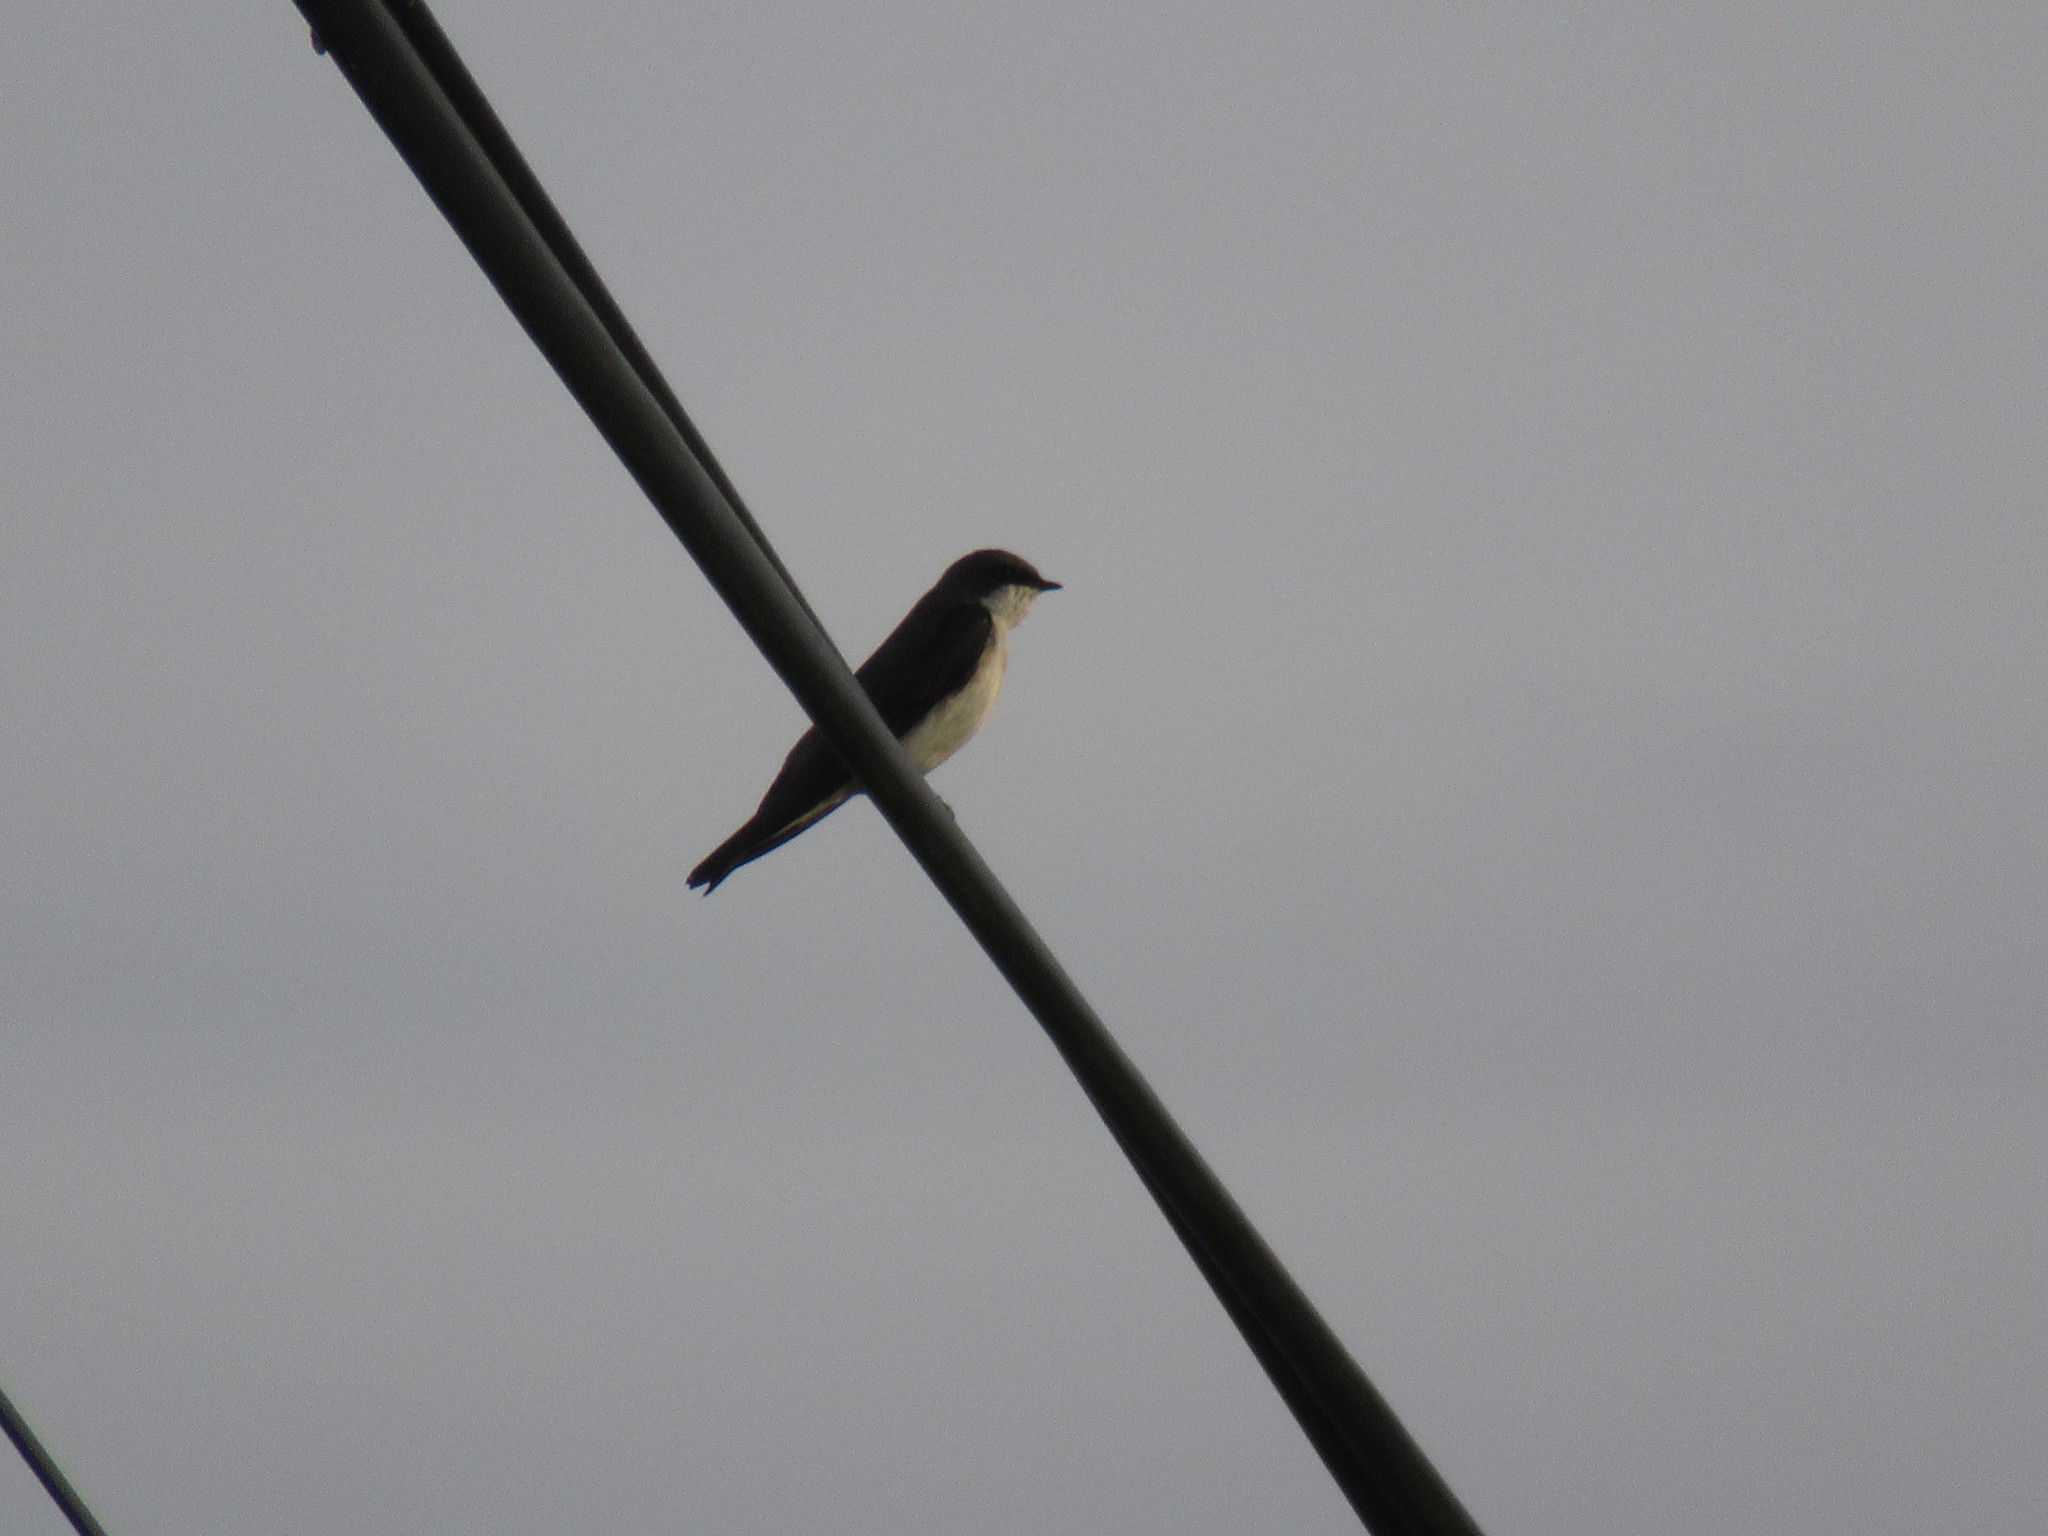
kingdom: Animalia
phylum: Chordata
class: Aves
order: Passeriformes
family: Hirundinidae
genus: Tachycineta
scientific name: Tachycineta bicolor
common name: Tree swallow
